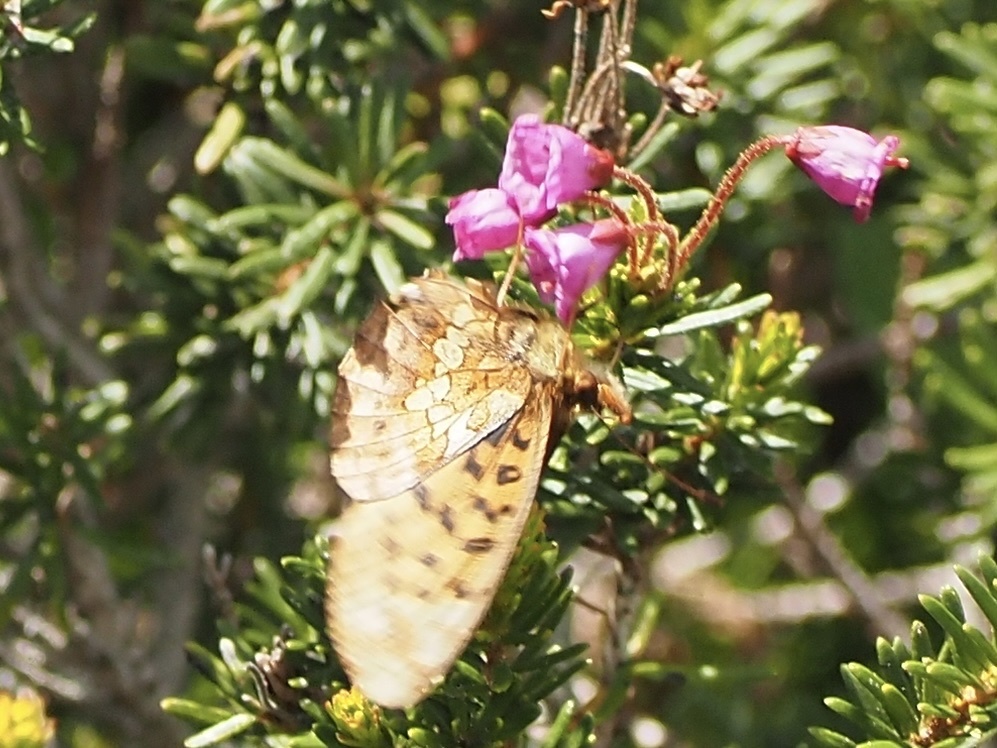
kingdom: Animalia
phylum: Arthropoda
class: Insecta
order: Lepidoptera
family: Nymphalidae
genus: Boloria
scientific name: Boloria epithore
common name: Pacific fritillary
